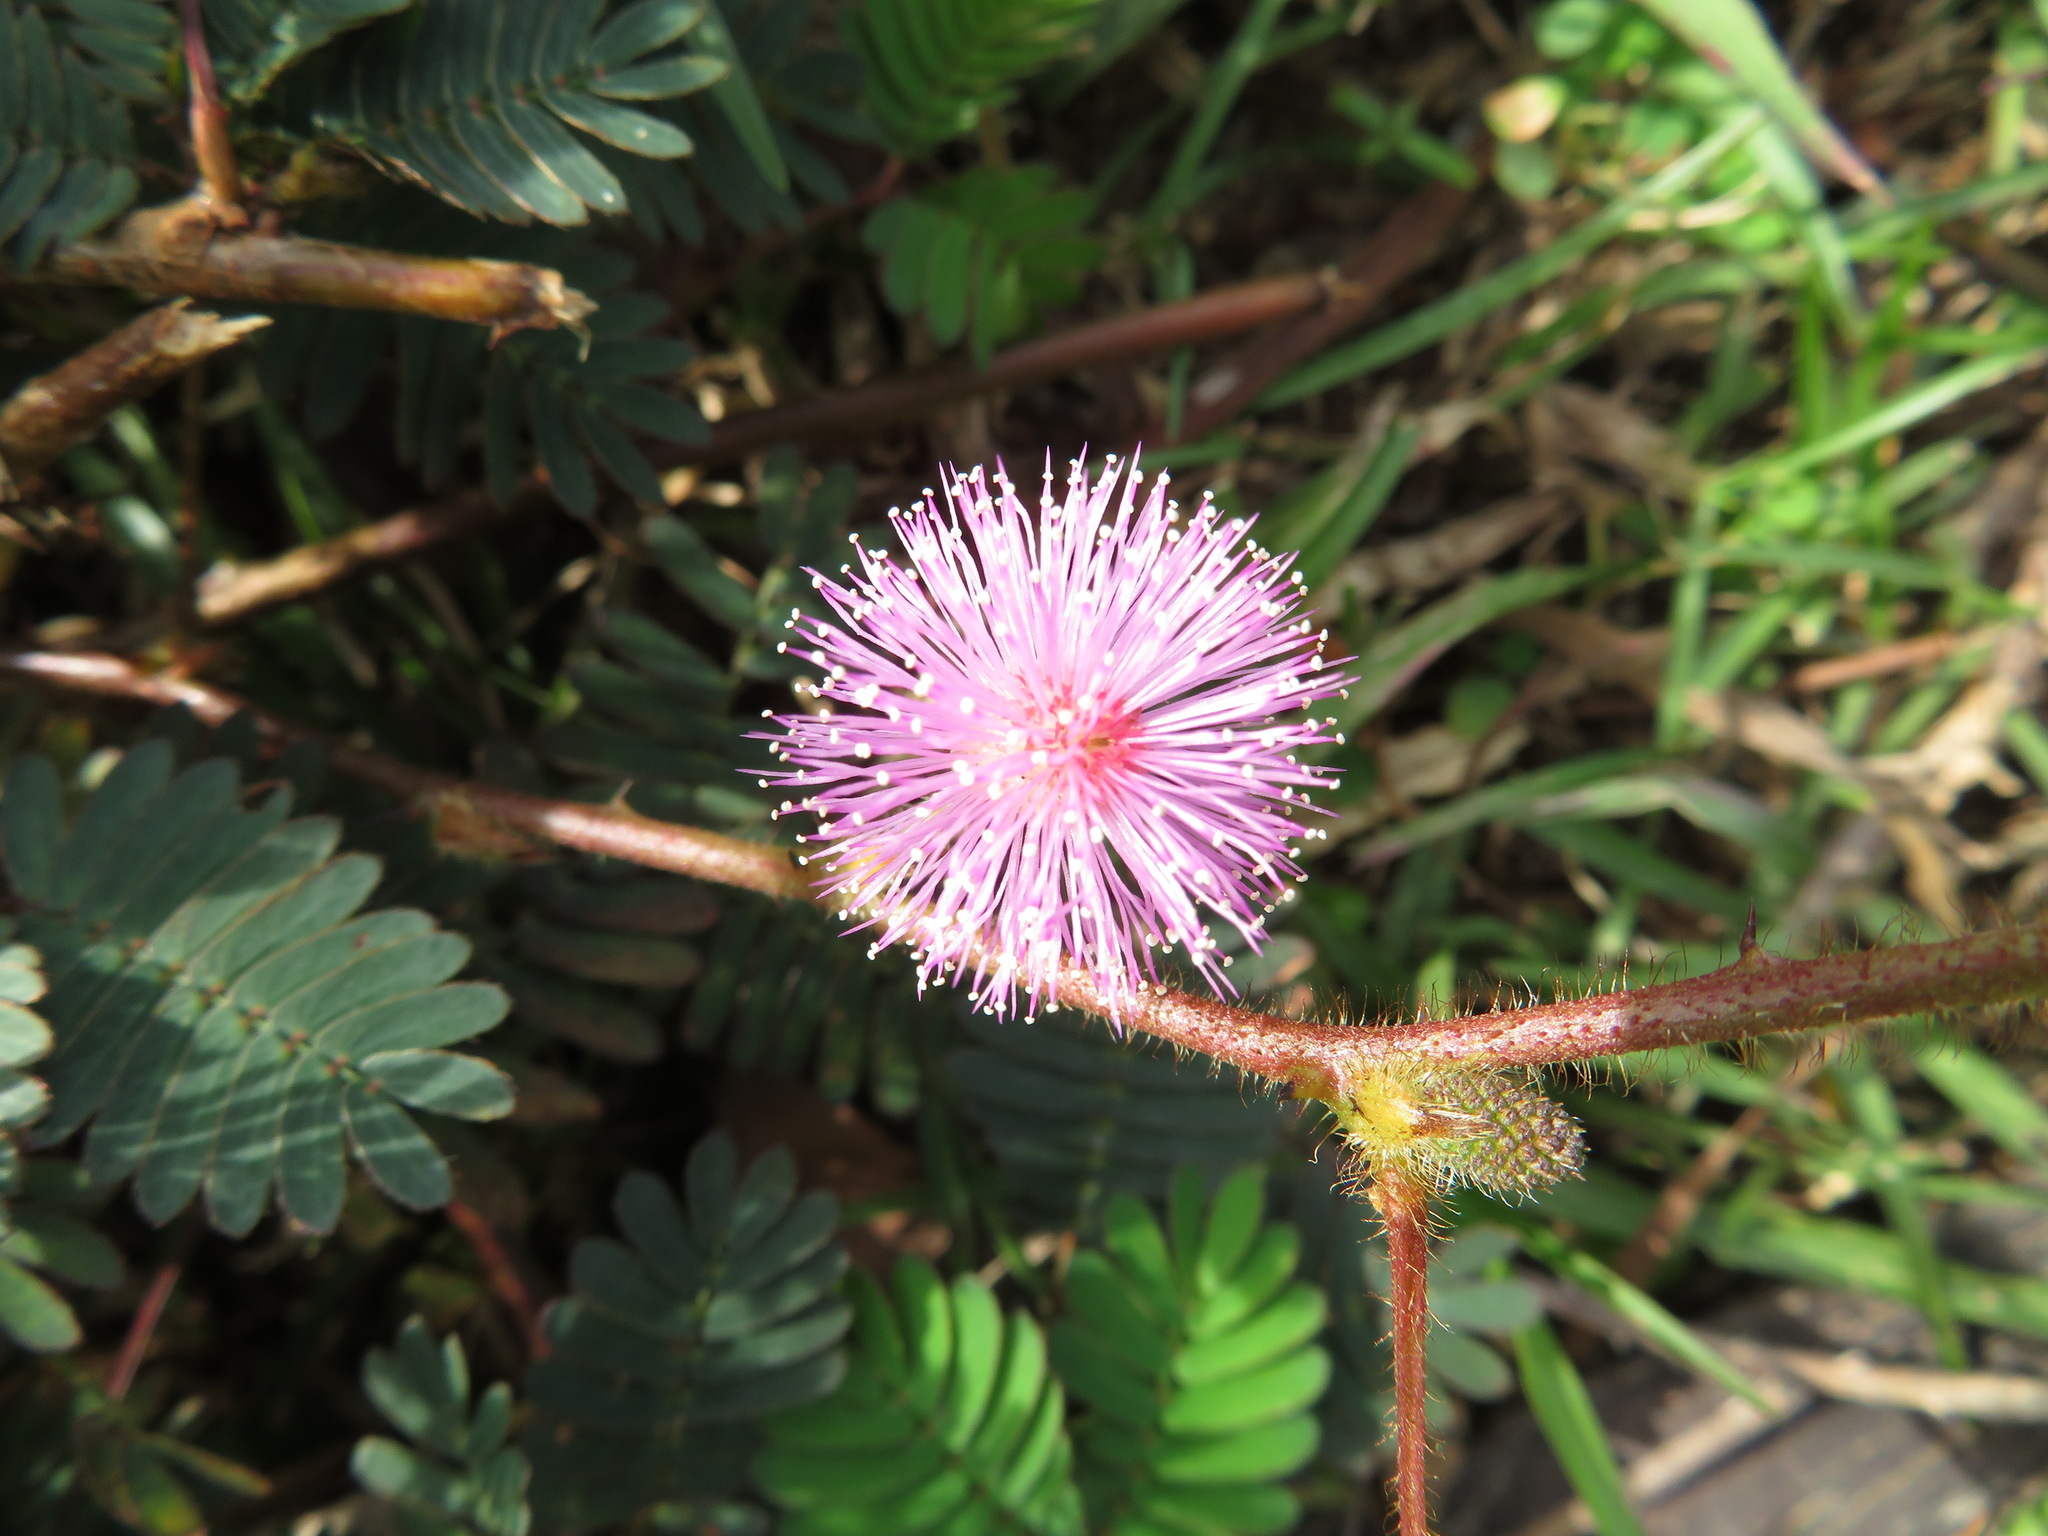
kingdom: Plantae
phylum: Tracheophyta
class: Magnoliopsida
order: Fabales
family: Fabaceae
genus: Mimosa
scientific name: Mimosa pudica
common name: Sensitive plant
